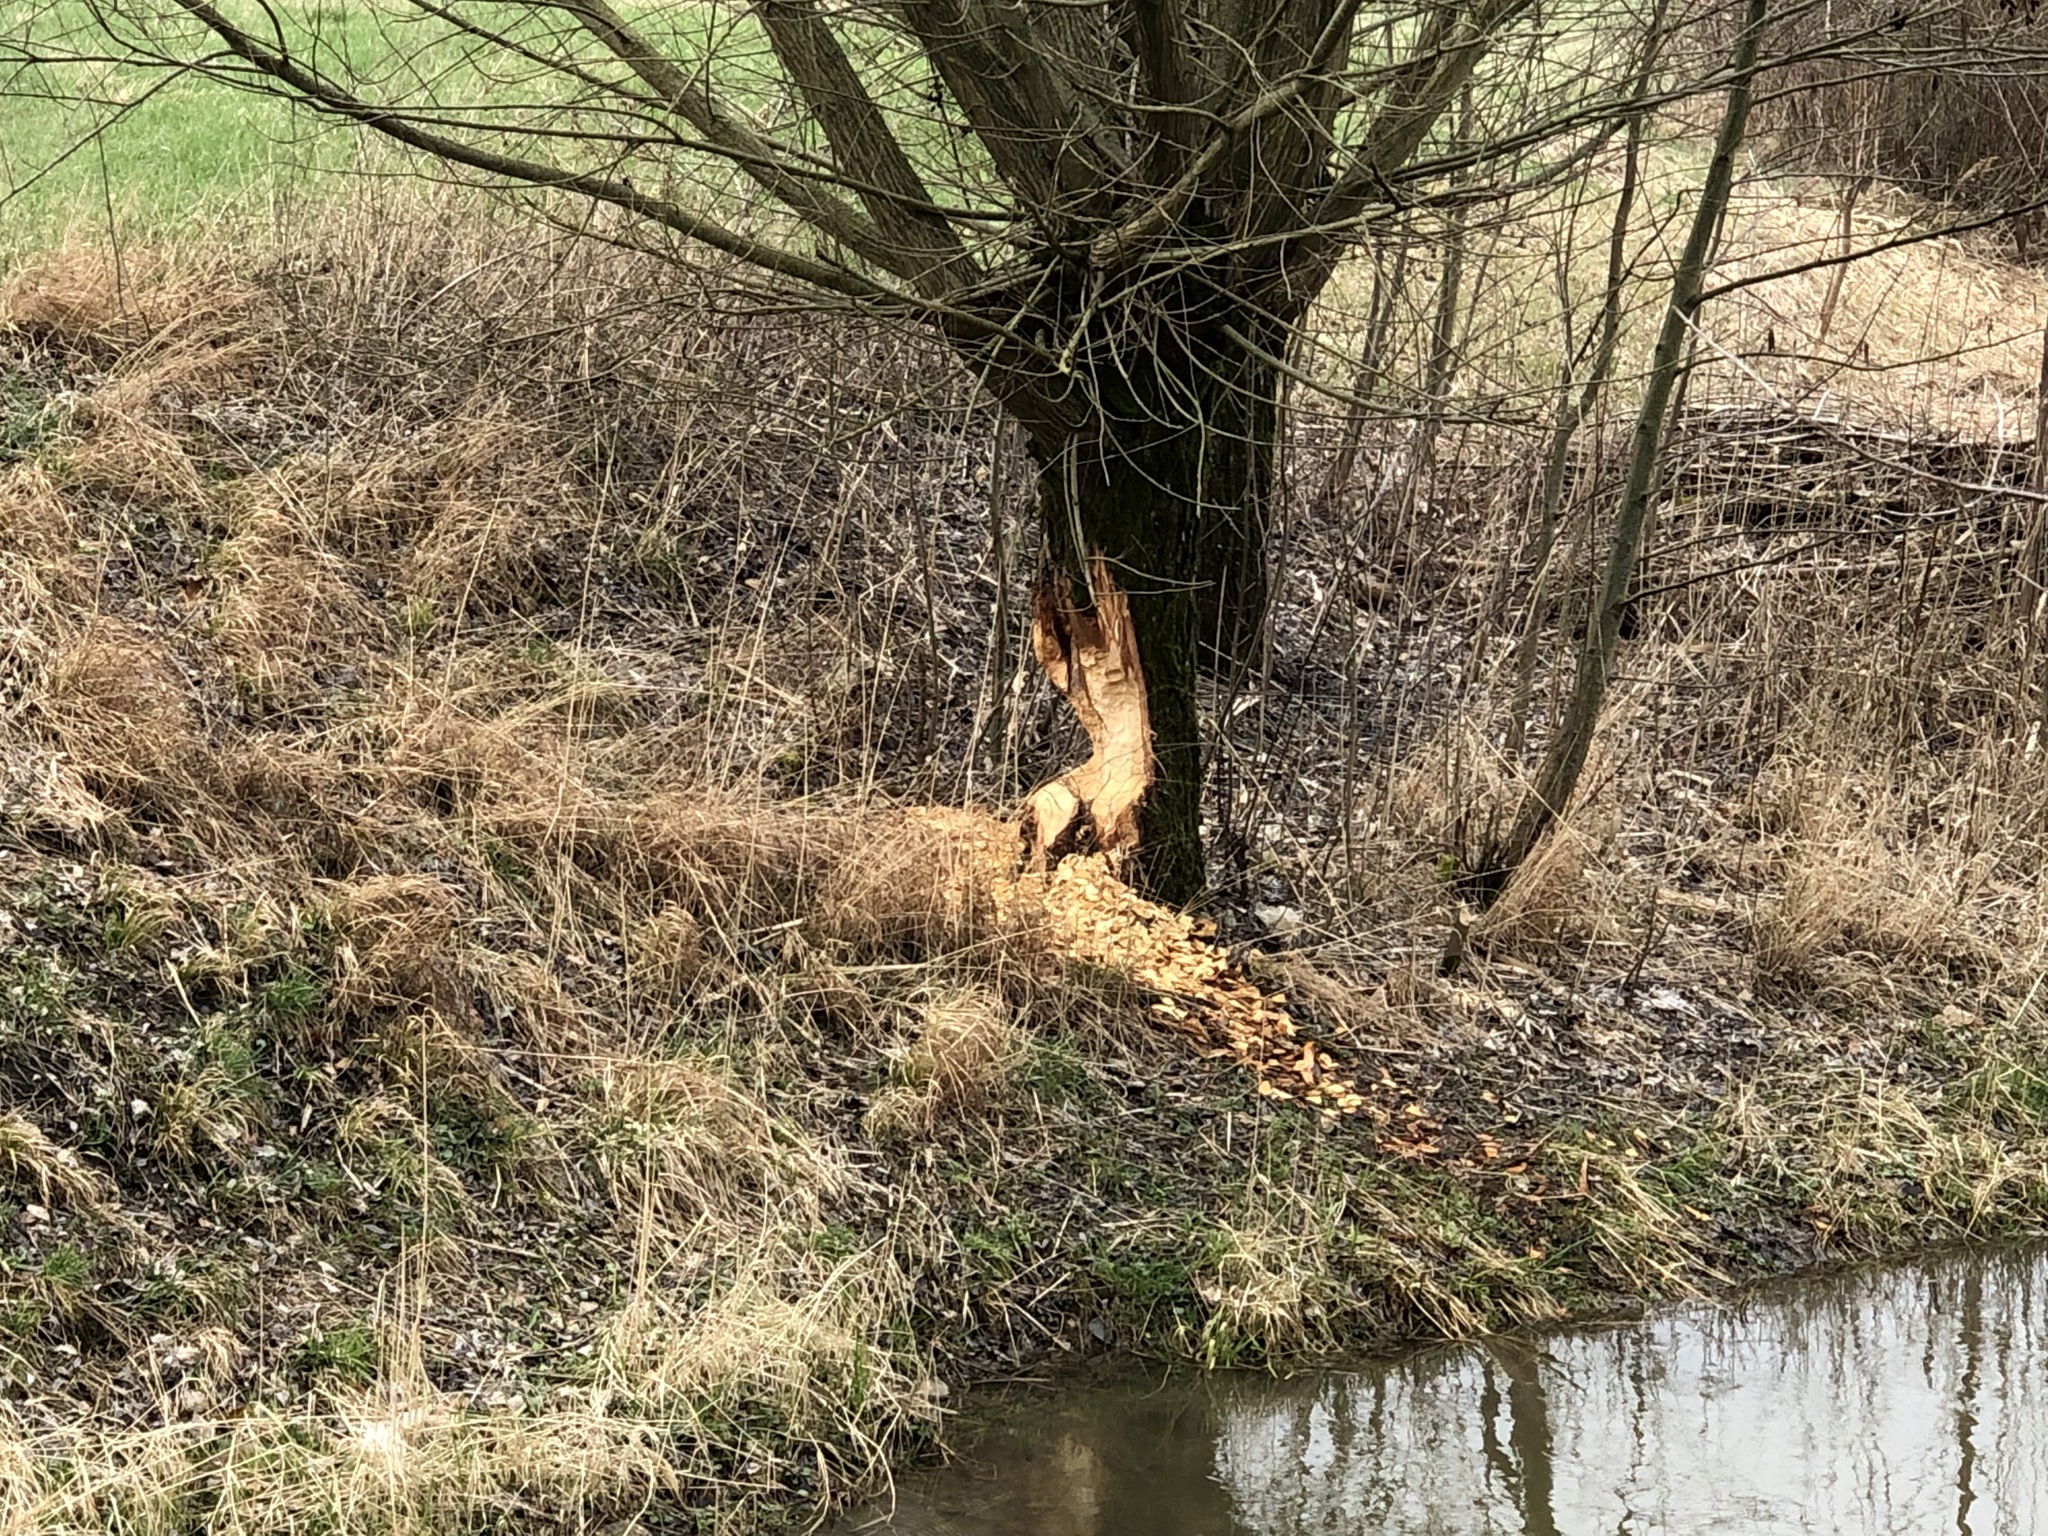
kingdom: Animalia
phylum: Chordata
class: Mammalia
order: Rodentia
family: Castoridae
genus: Castor
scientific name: Castor fiber
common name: Eurasian beaver
